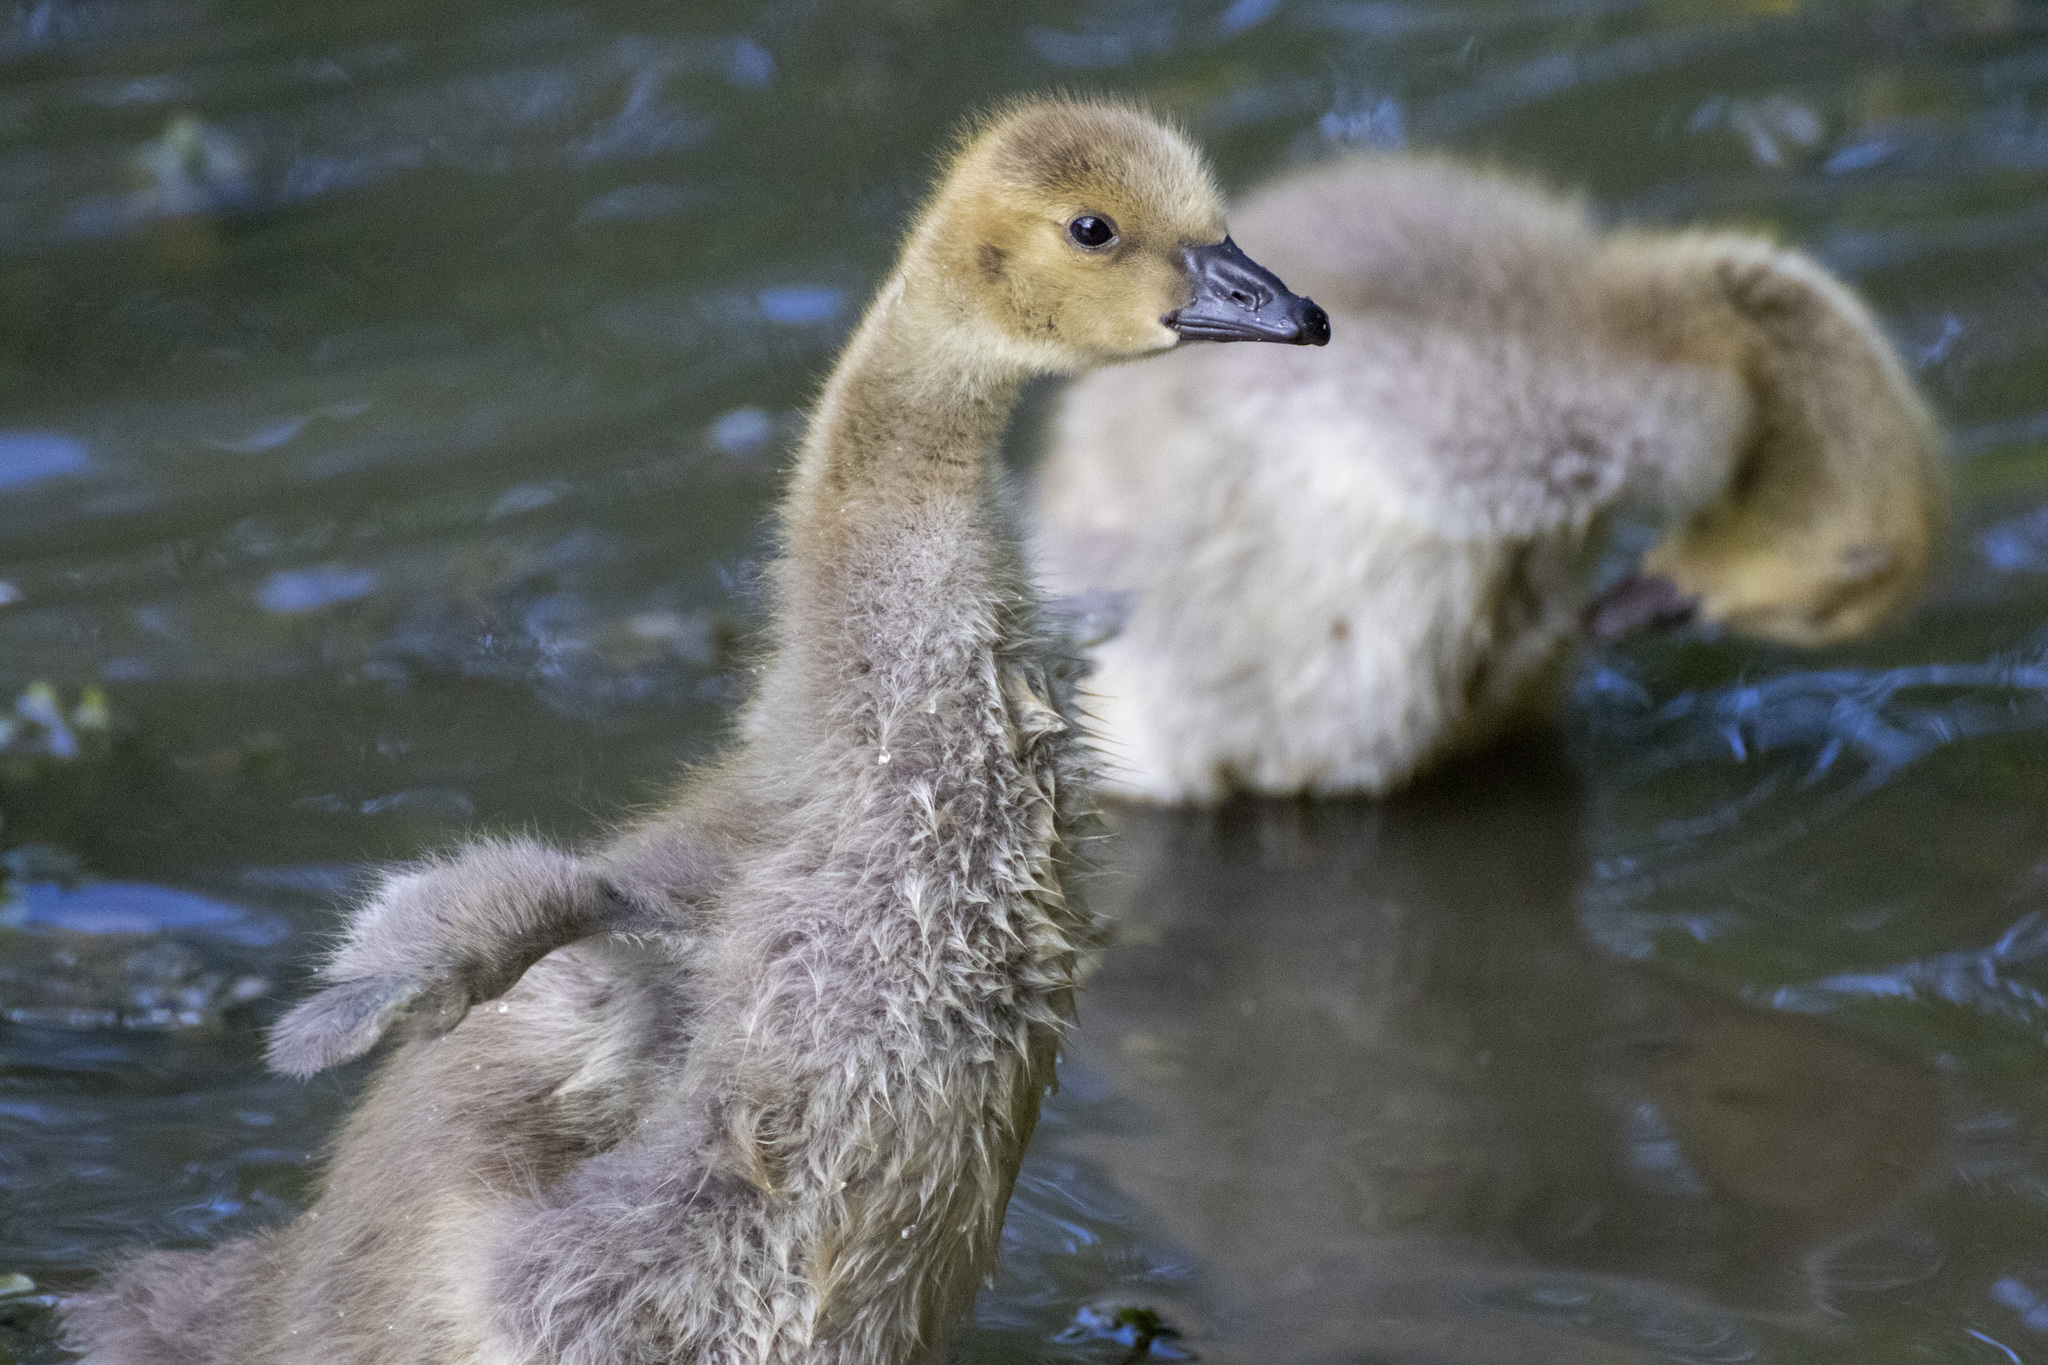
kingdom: Animalia
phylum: Chordata
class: Aves
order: Anseriformes
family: Anatidae
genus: Branta
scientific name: Branta canadensis
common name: Canada goose
